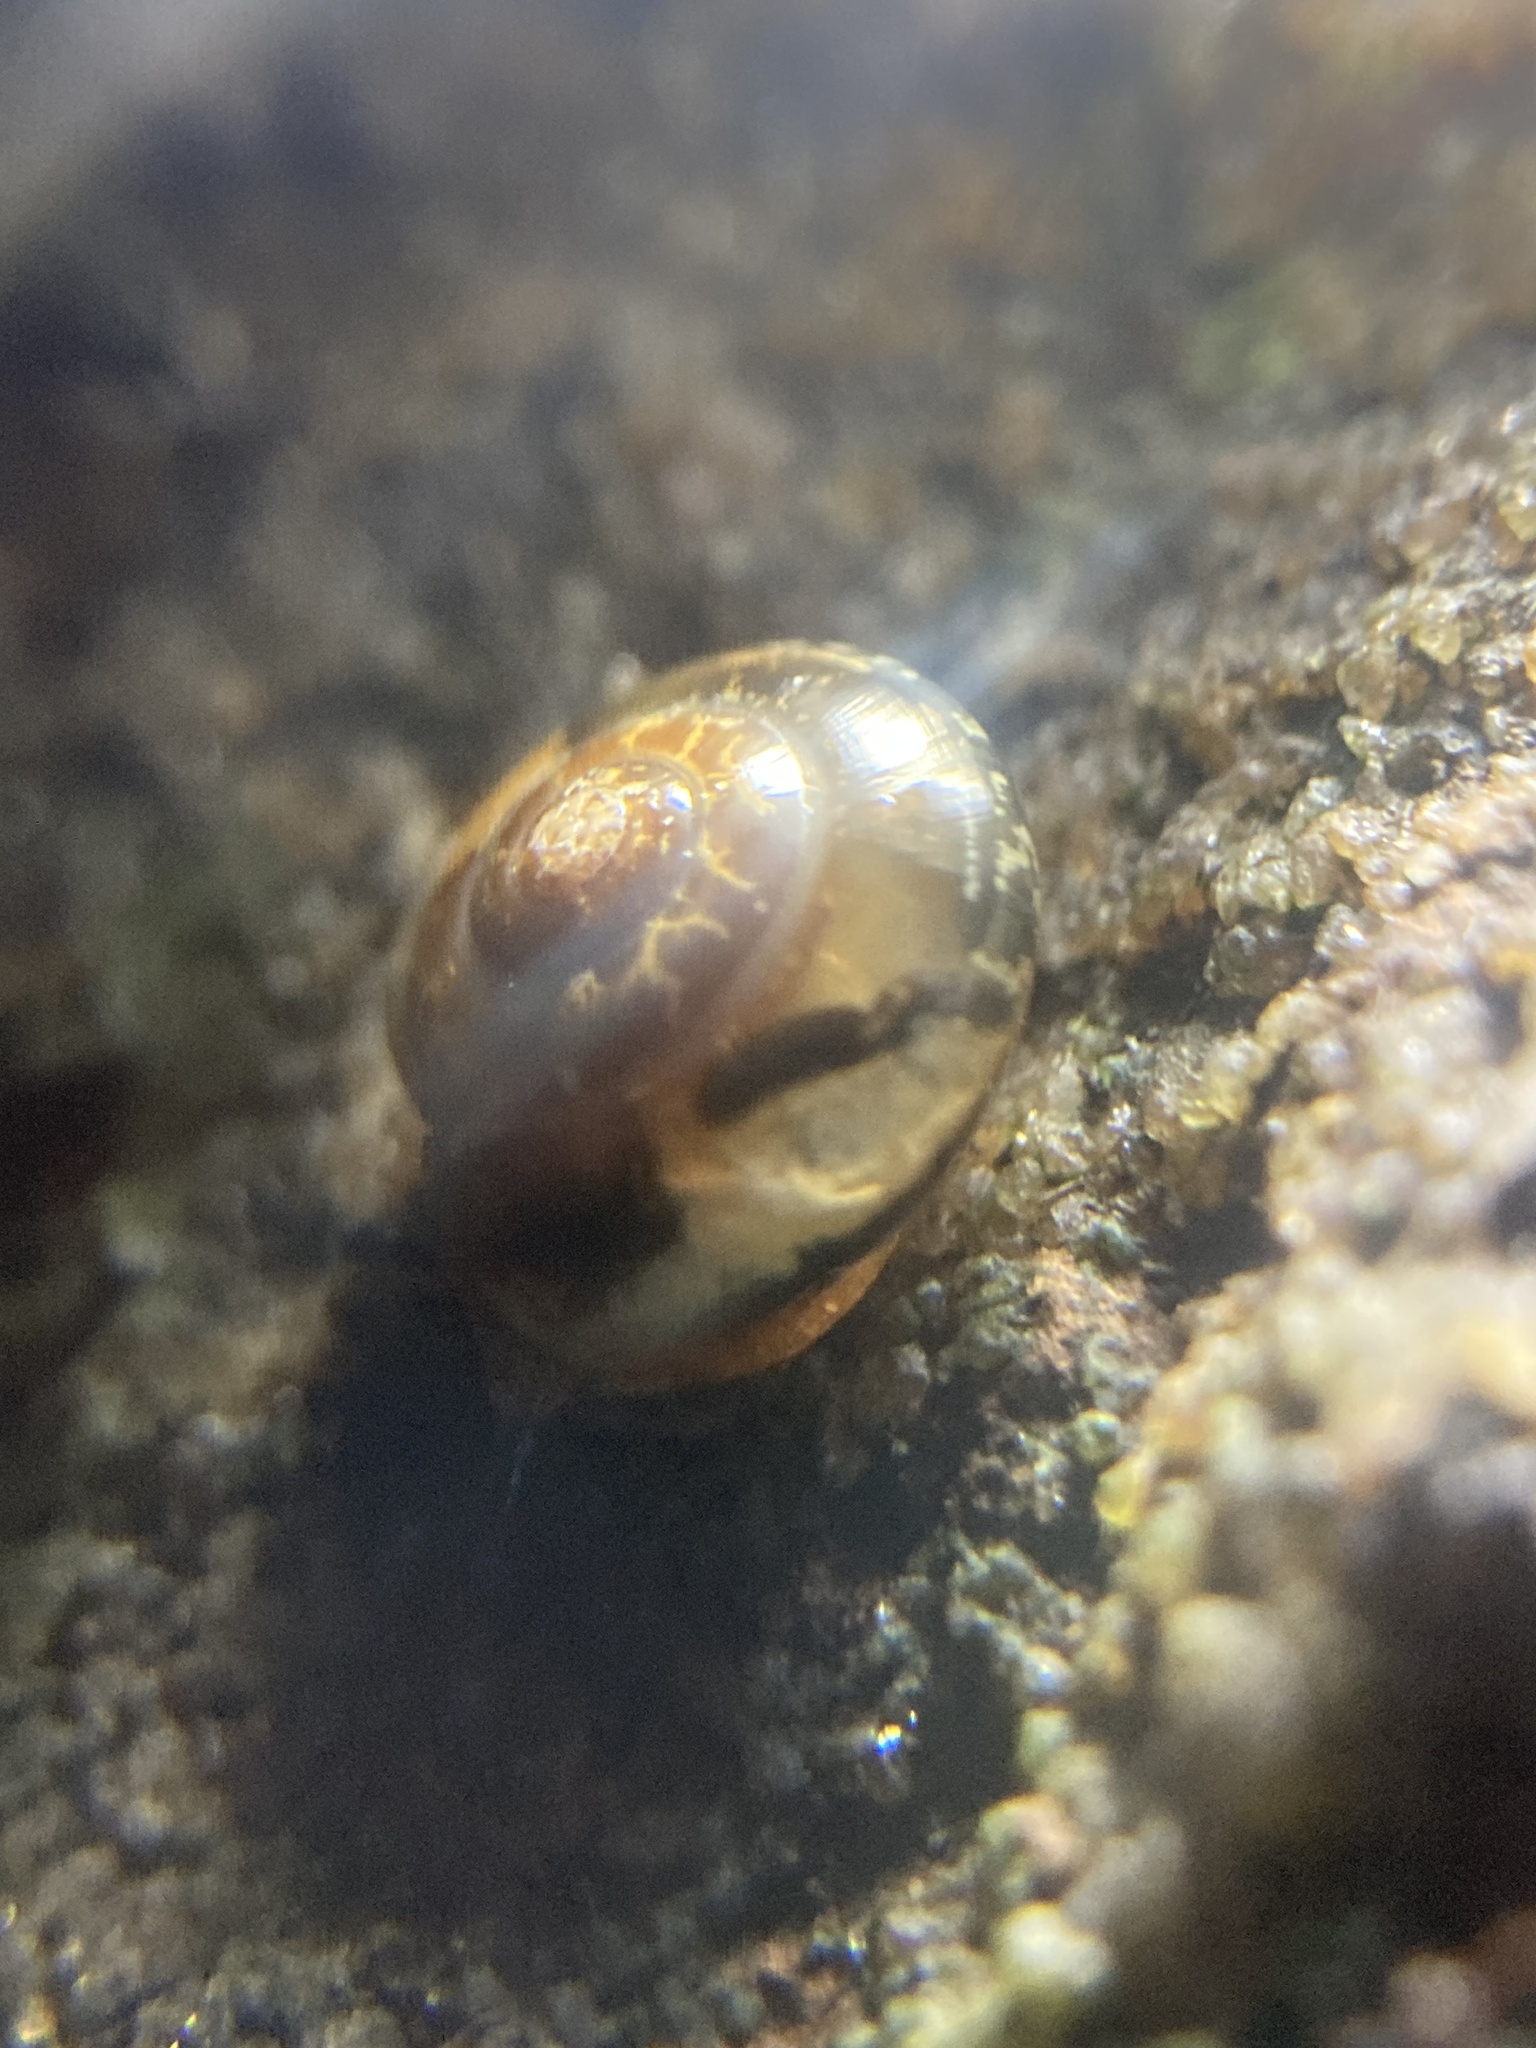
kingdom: Animalia
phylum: Mollusca
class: Gastropoda
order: Stylommatophora
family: Helicarionidae
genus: Nitor
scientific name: Nitor circumcinctus
